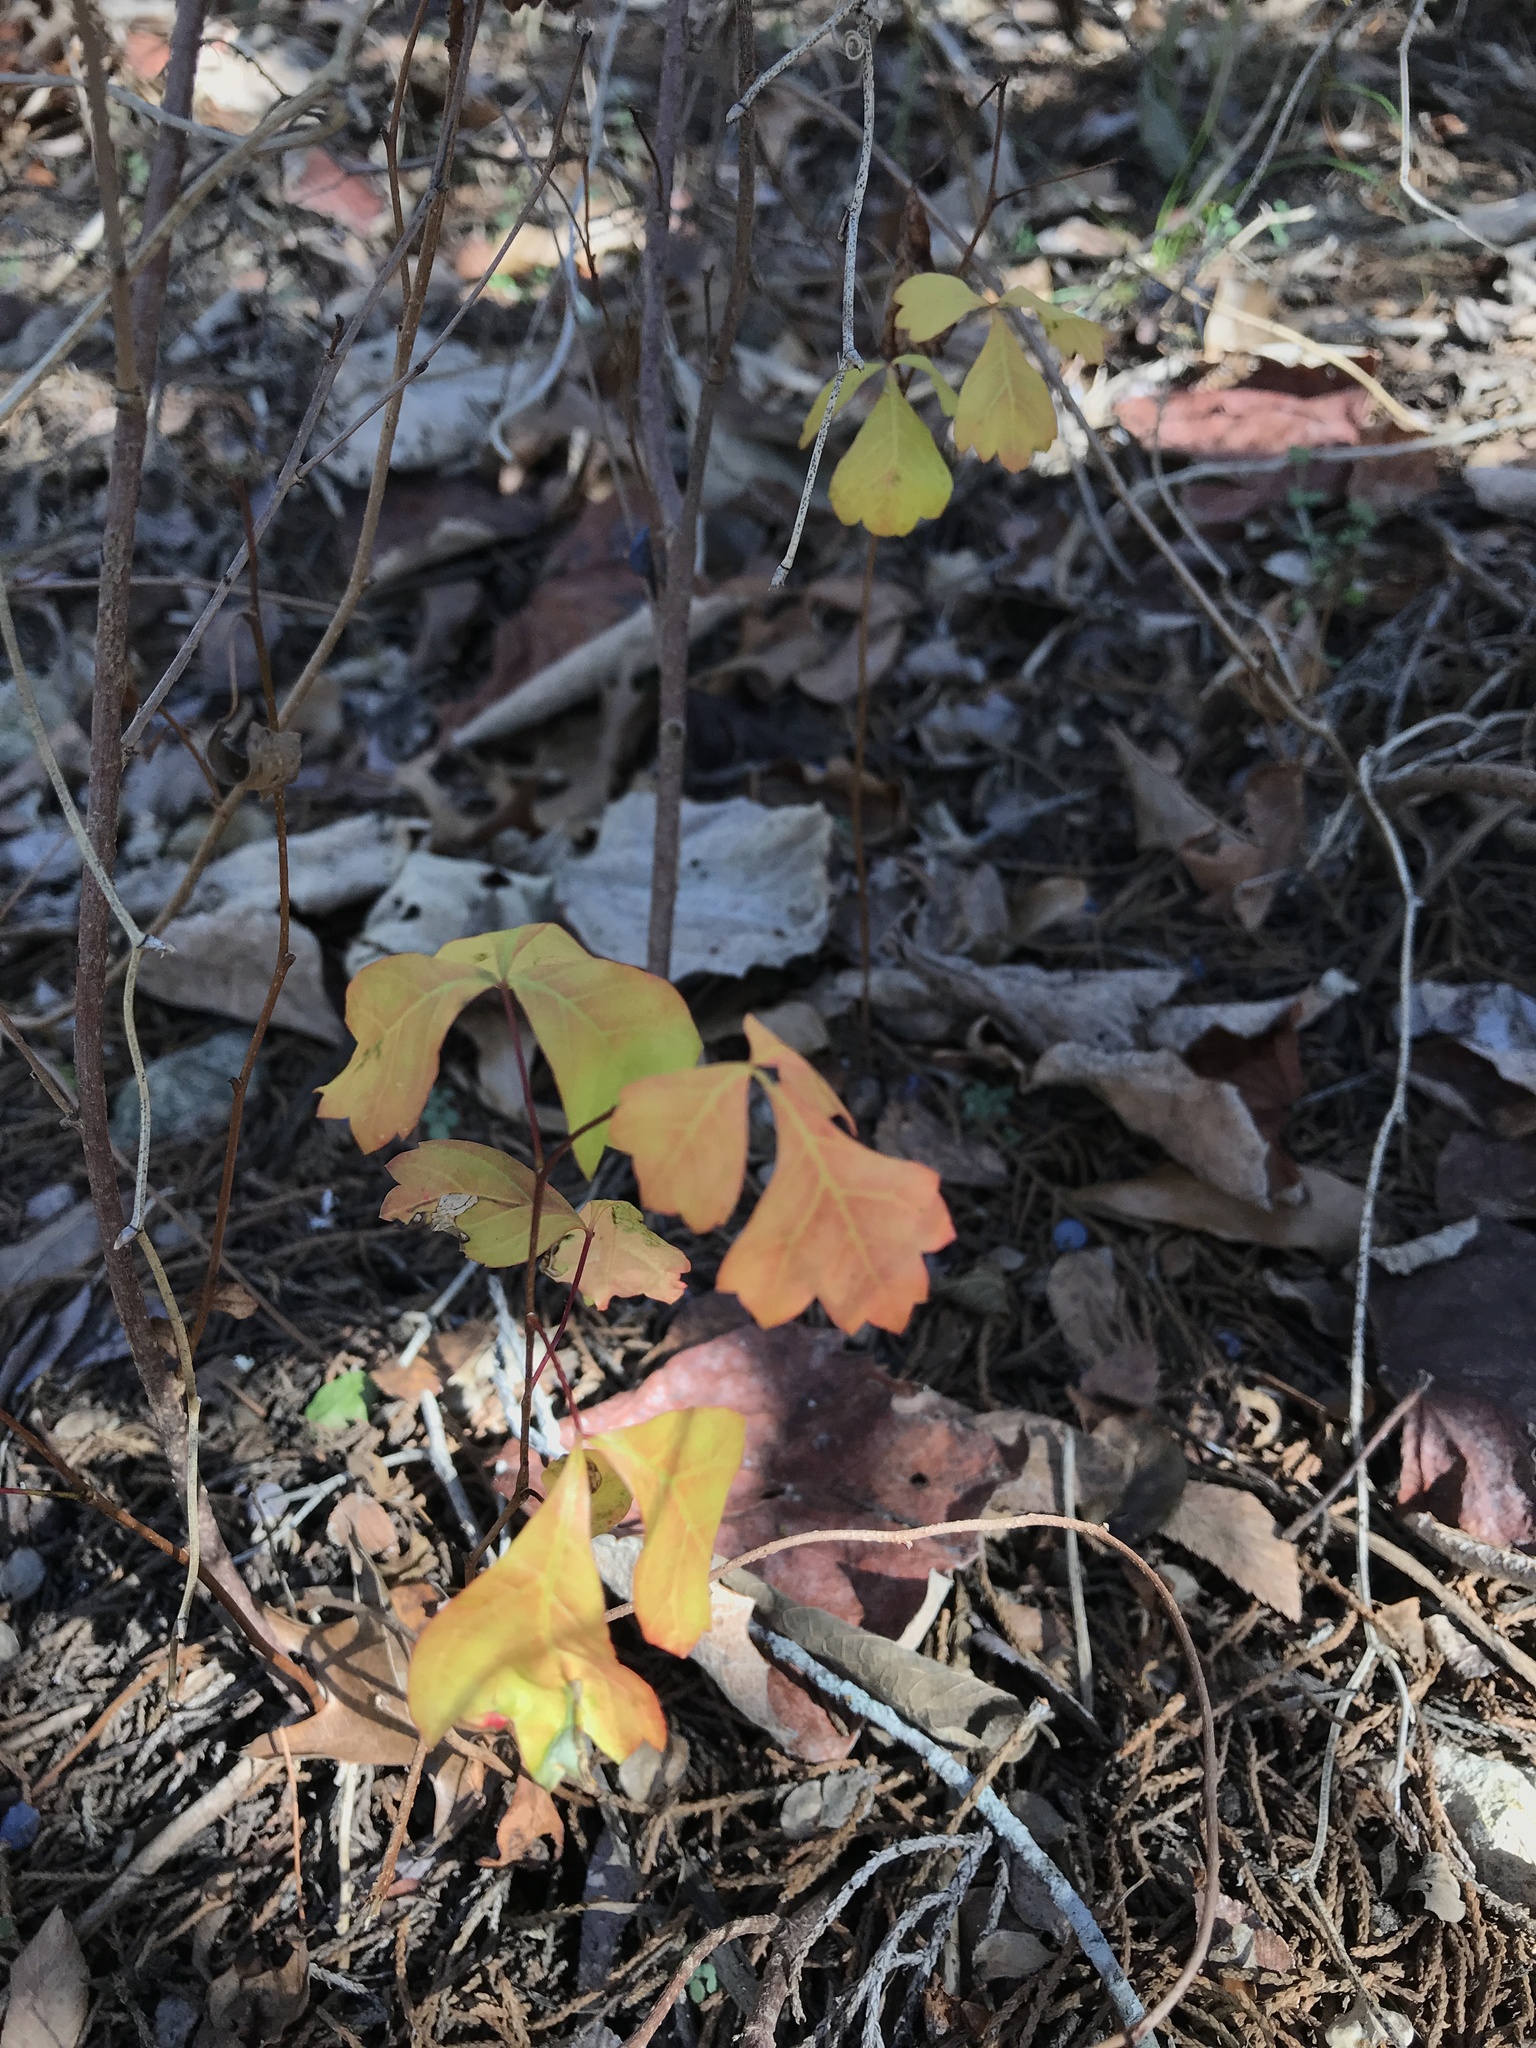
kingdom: Plantae
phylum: Tracheophyta
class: Magnoliopsida
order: Sapindales
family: Anacardiaceae
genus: Rhus
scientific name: Rhus aromatica
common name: Aromatic sumac
